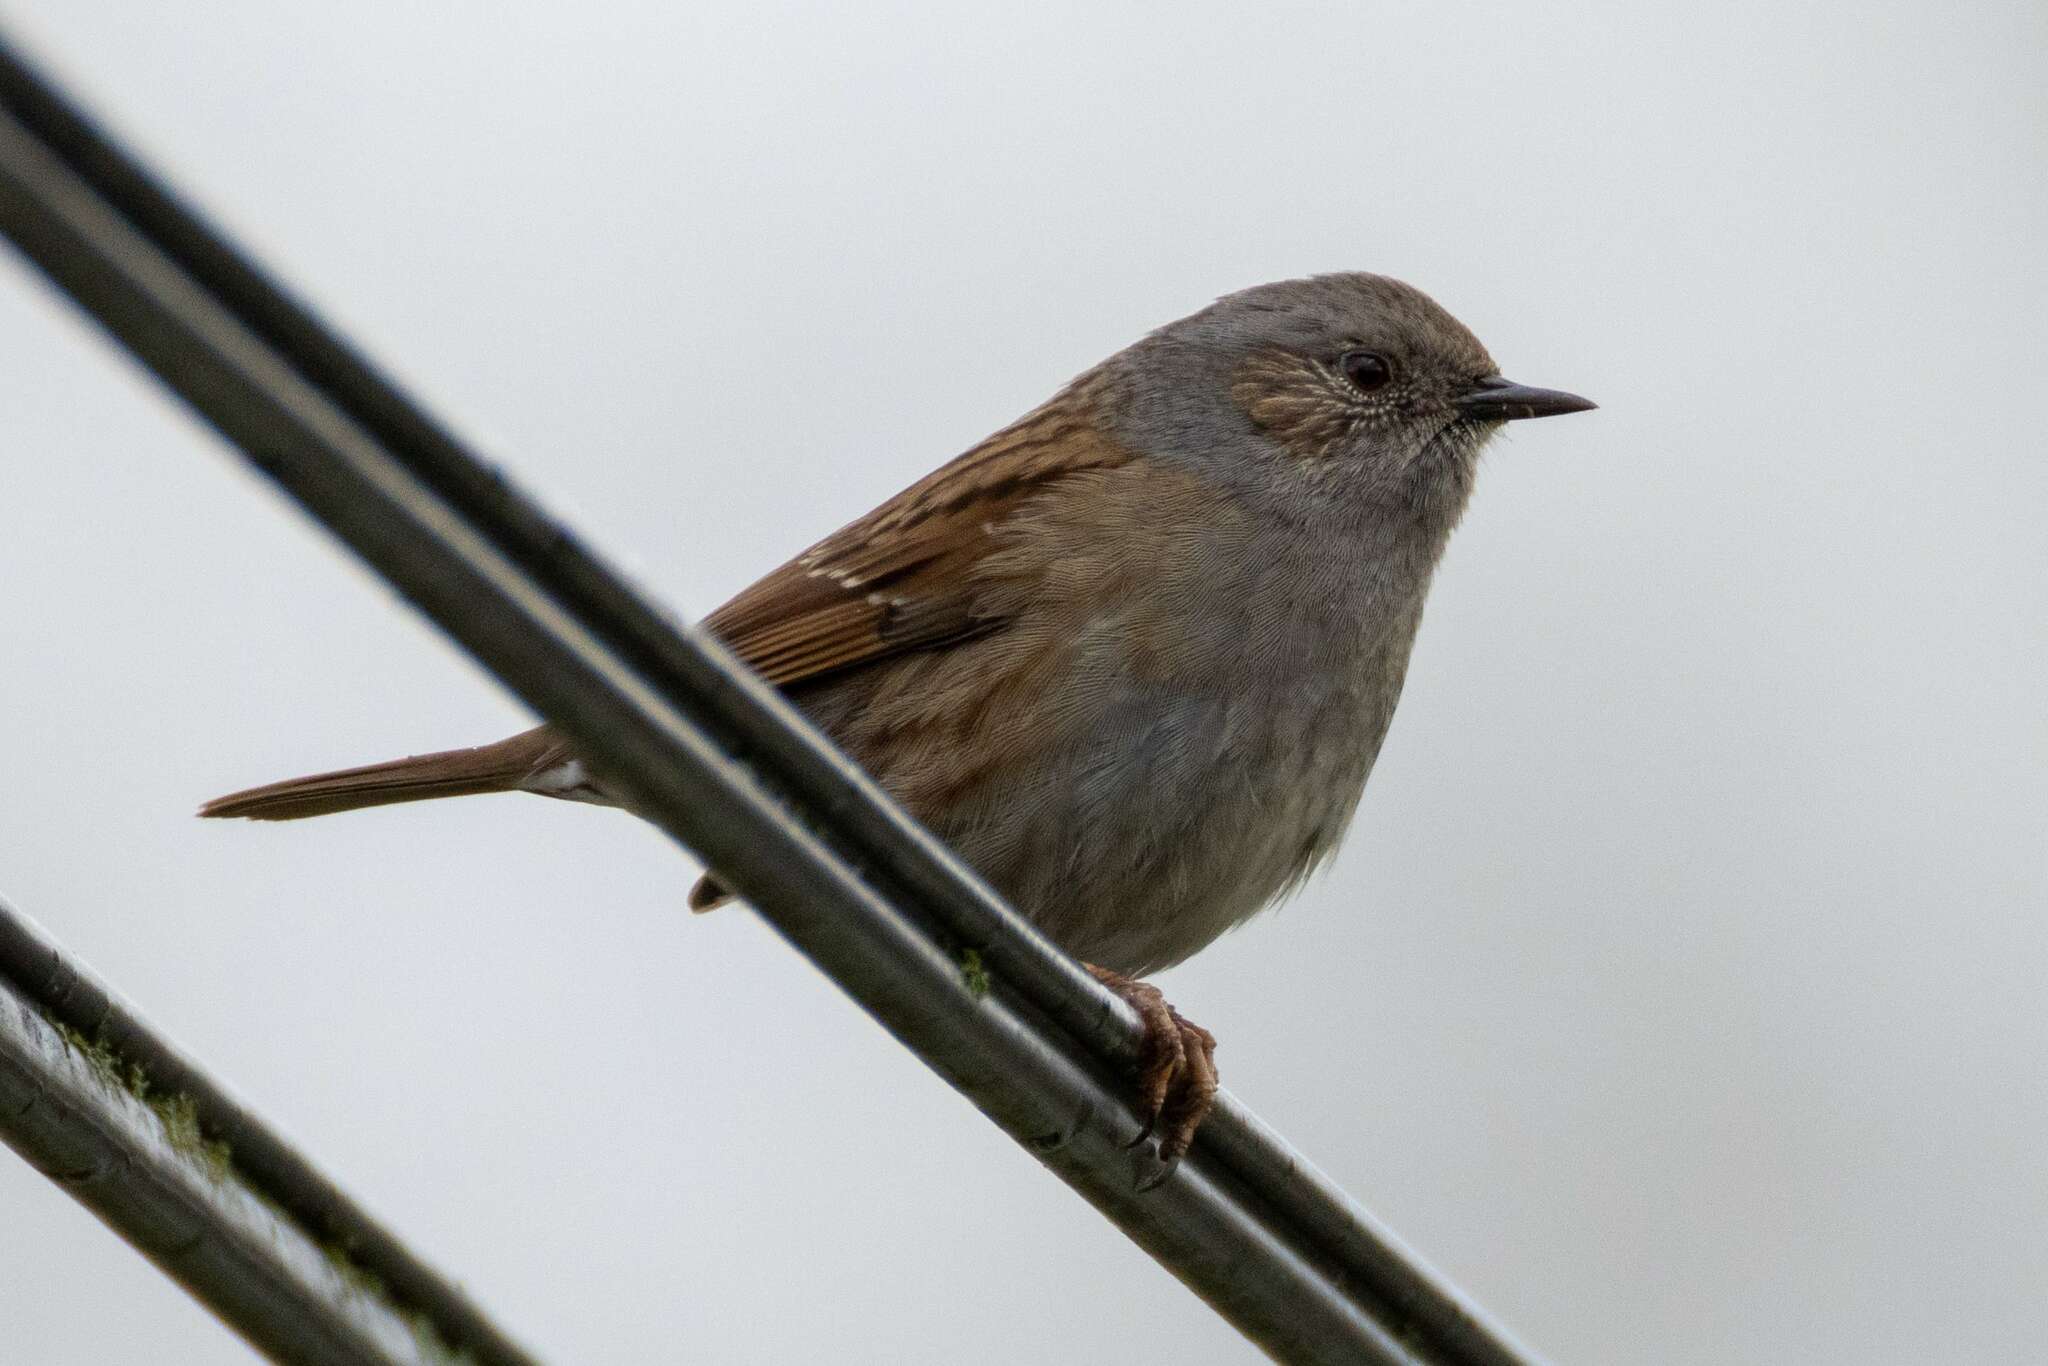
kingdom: Animalia
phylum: Chordata
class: Aves
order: Passeriformes
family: Prunellidae
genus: Prunella
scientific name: Prunella modularis
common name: Dunnock
